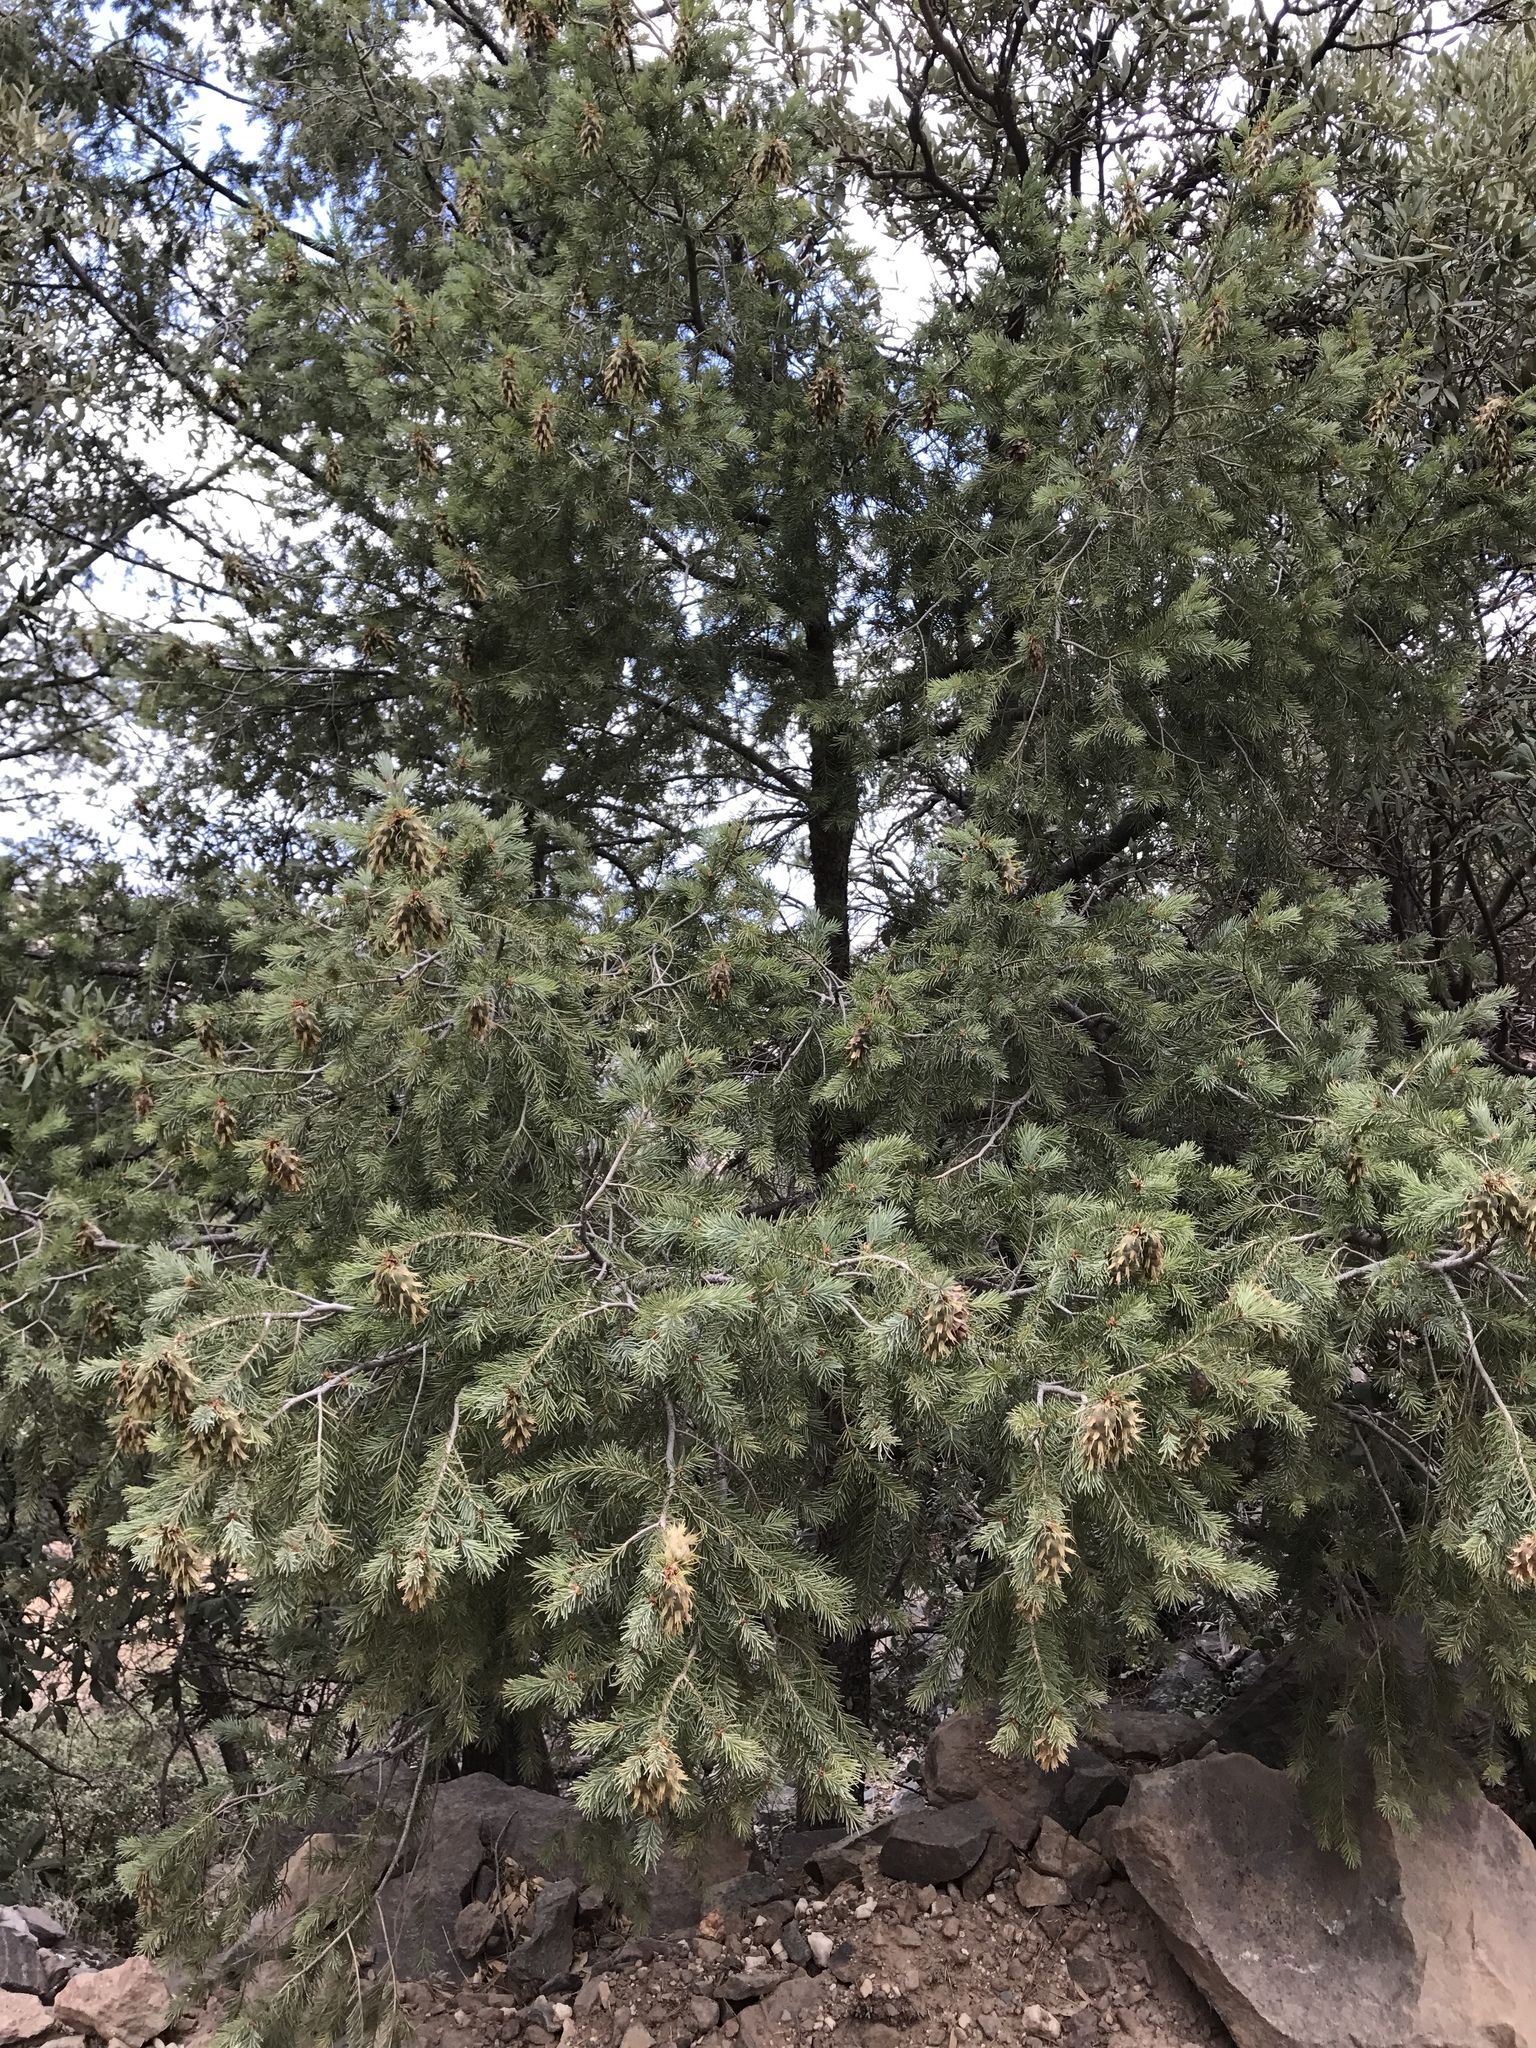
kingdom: Plantae
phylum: Tracheophyta
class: Pinopsida
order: Pinales
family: Pinaceae
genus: Pseudotsuga
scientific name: Pseudotsuga menziesii
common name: Douglas fir
